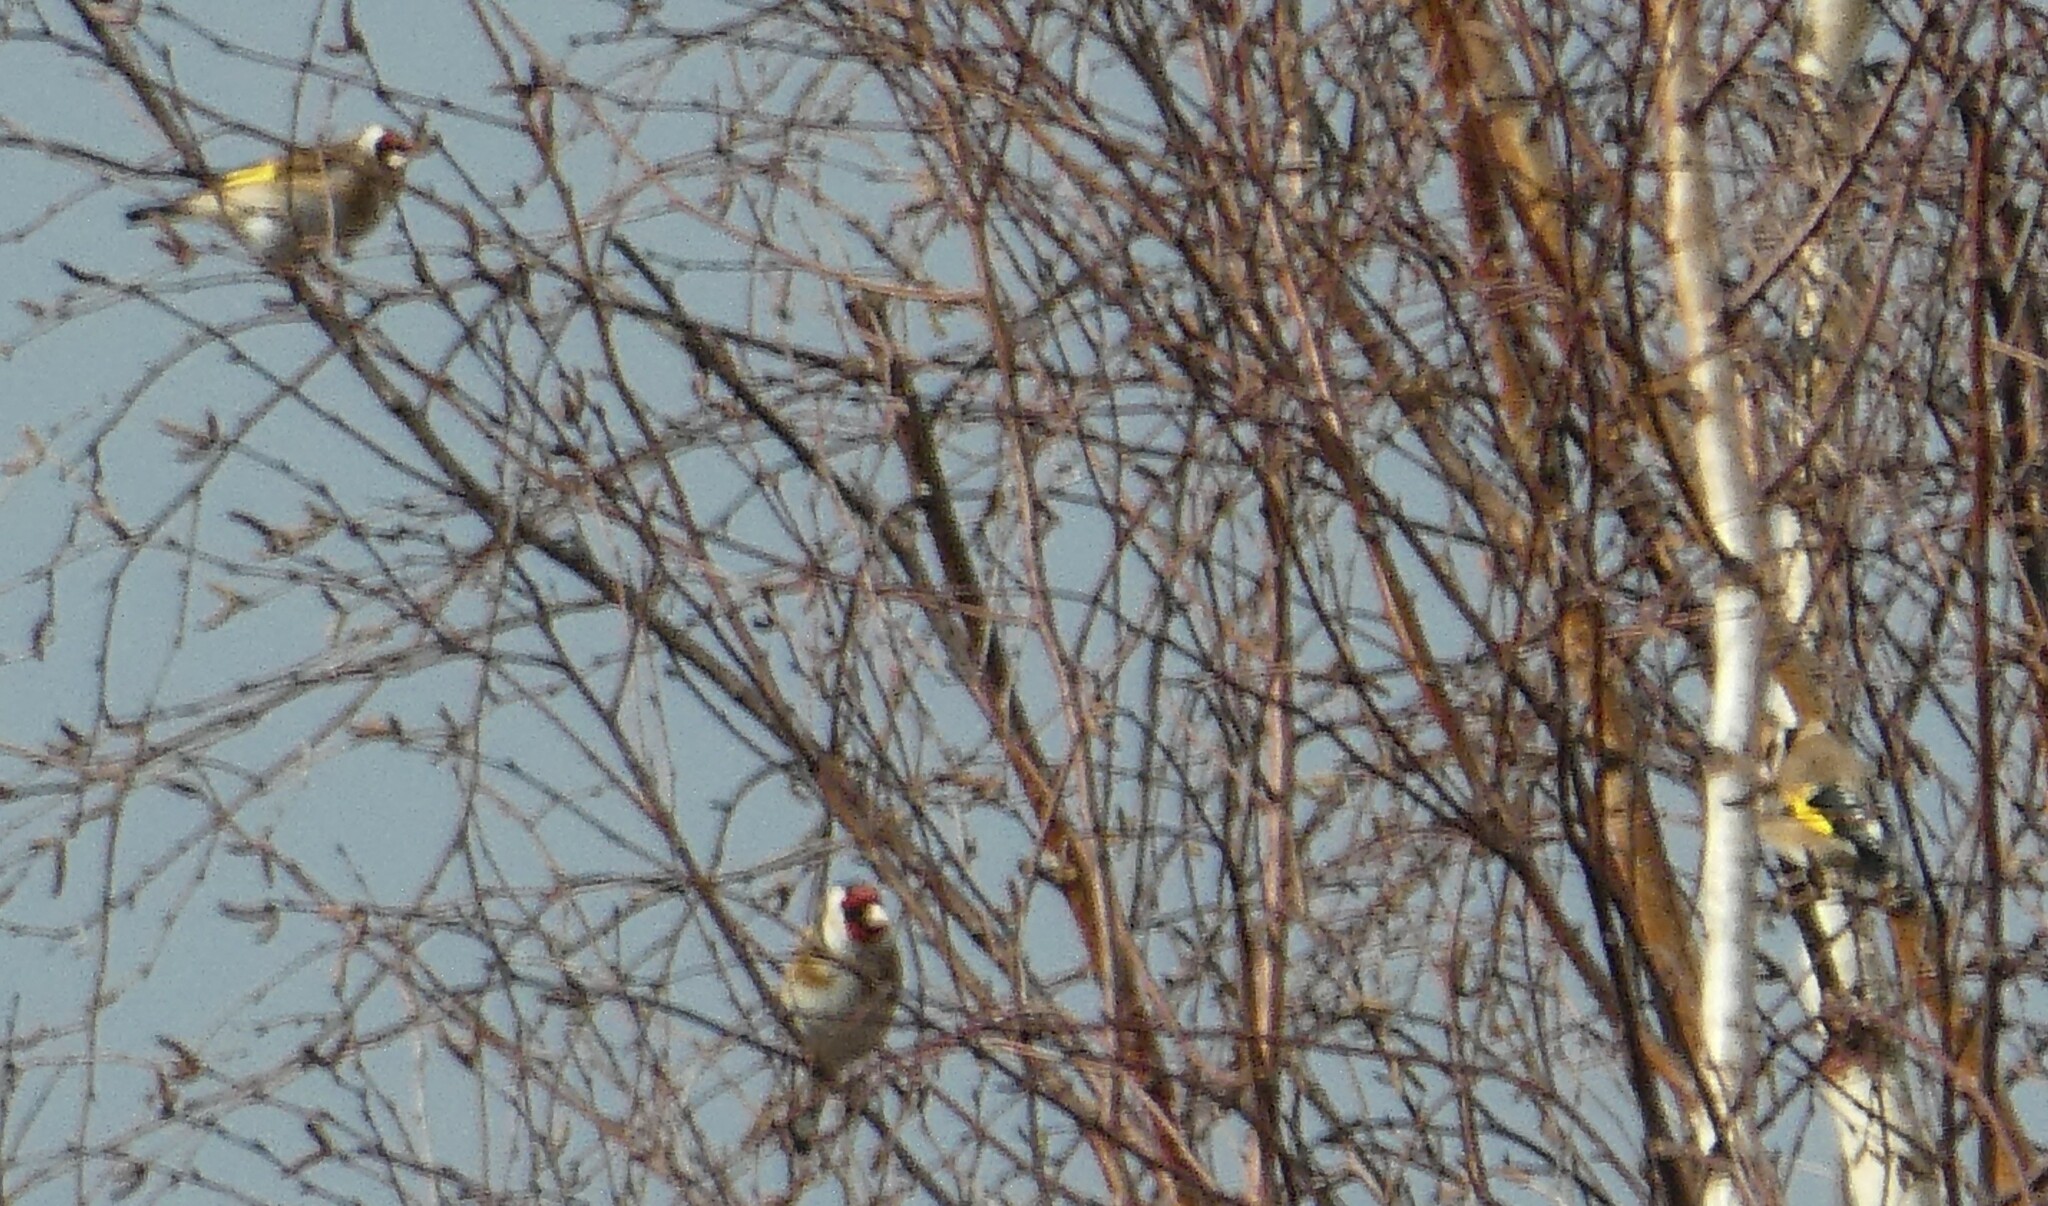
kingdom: Animalia
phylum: Chordata
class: Aves
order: Passeriformes
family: Fringillidae
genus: Carduelis
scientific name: Carduelis carduelis
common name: European goldfinch
